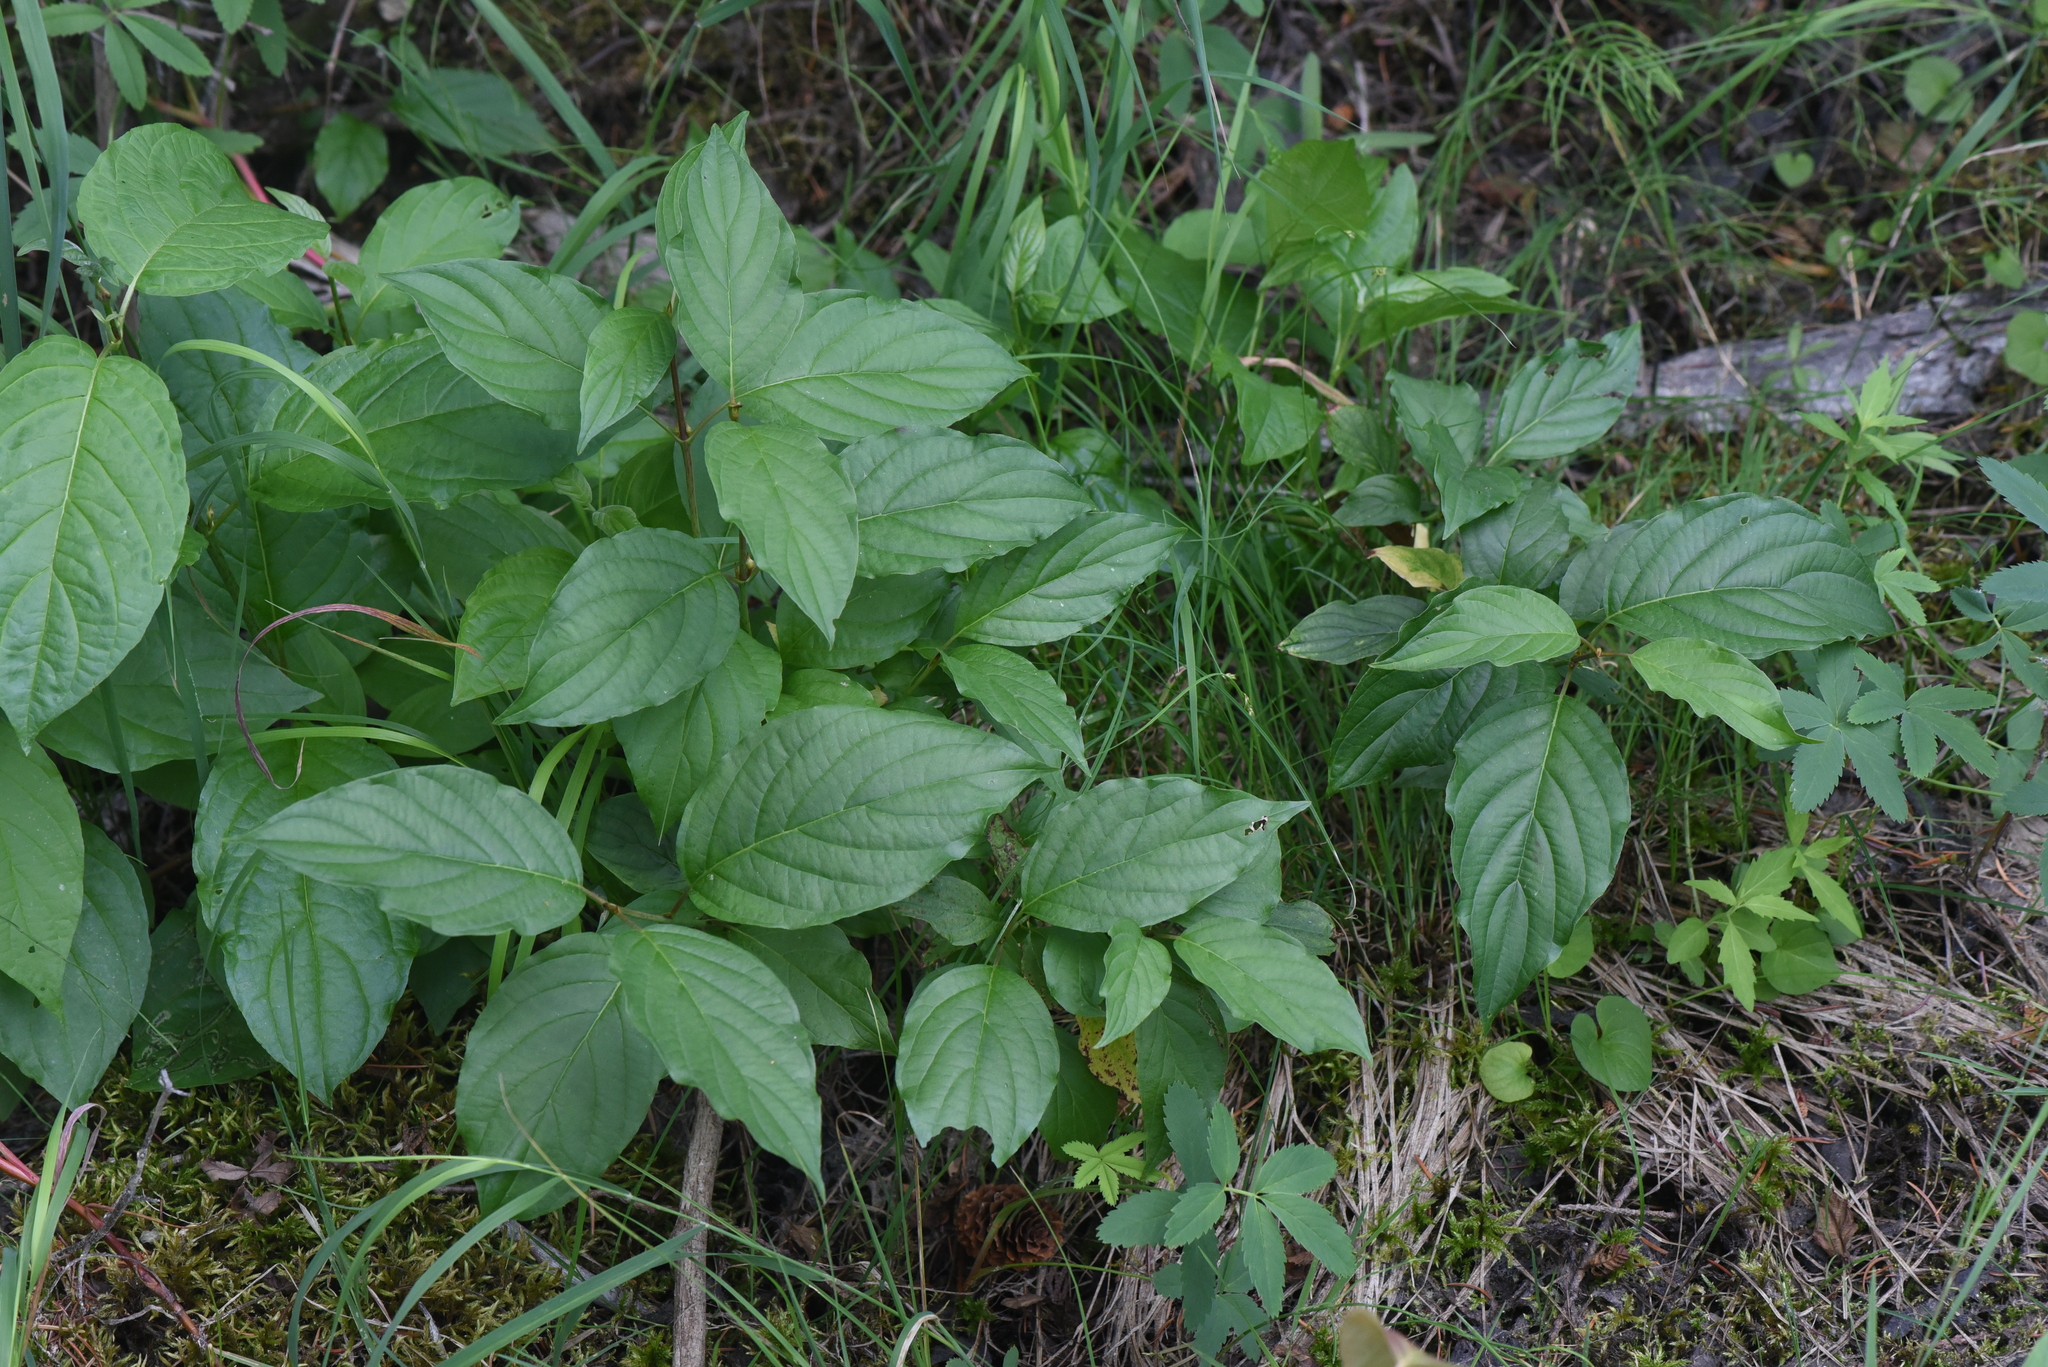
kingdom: Plantae
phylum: Tracheophyta
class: Magnoliopsida
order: Dipsacales
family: Caprifoliaceae
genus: Lonicera
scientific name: Lonicera involucrata
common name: Californian honeysuckle
